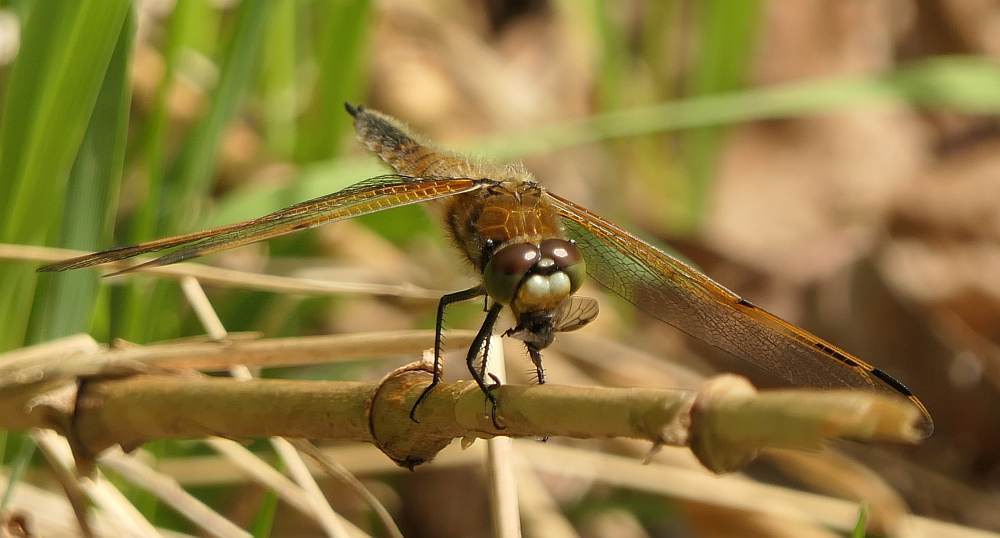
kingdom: Animalia
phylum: Arthropoda
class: Insecta
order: Odonata
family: Libellulidae
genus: Libellula
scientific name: Libellula quadrimaculata
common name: Four-spotted chaser
